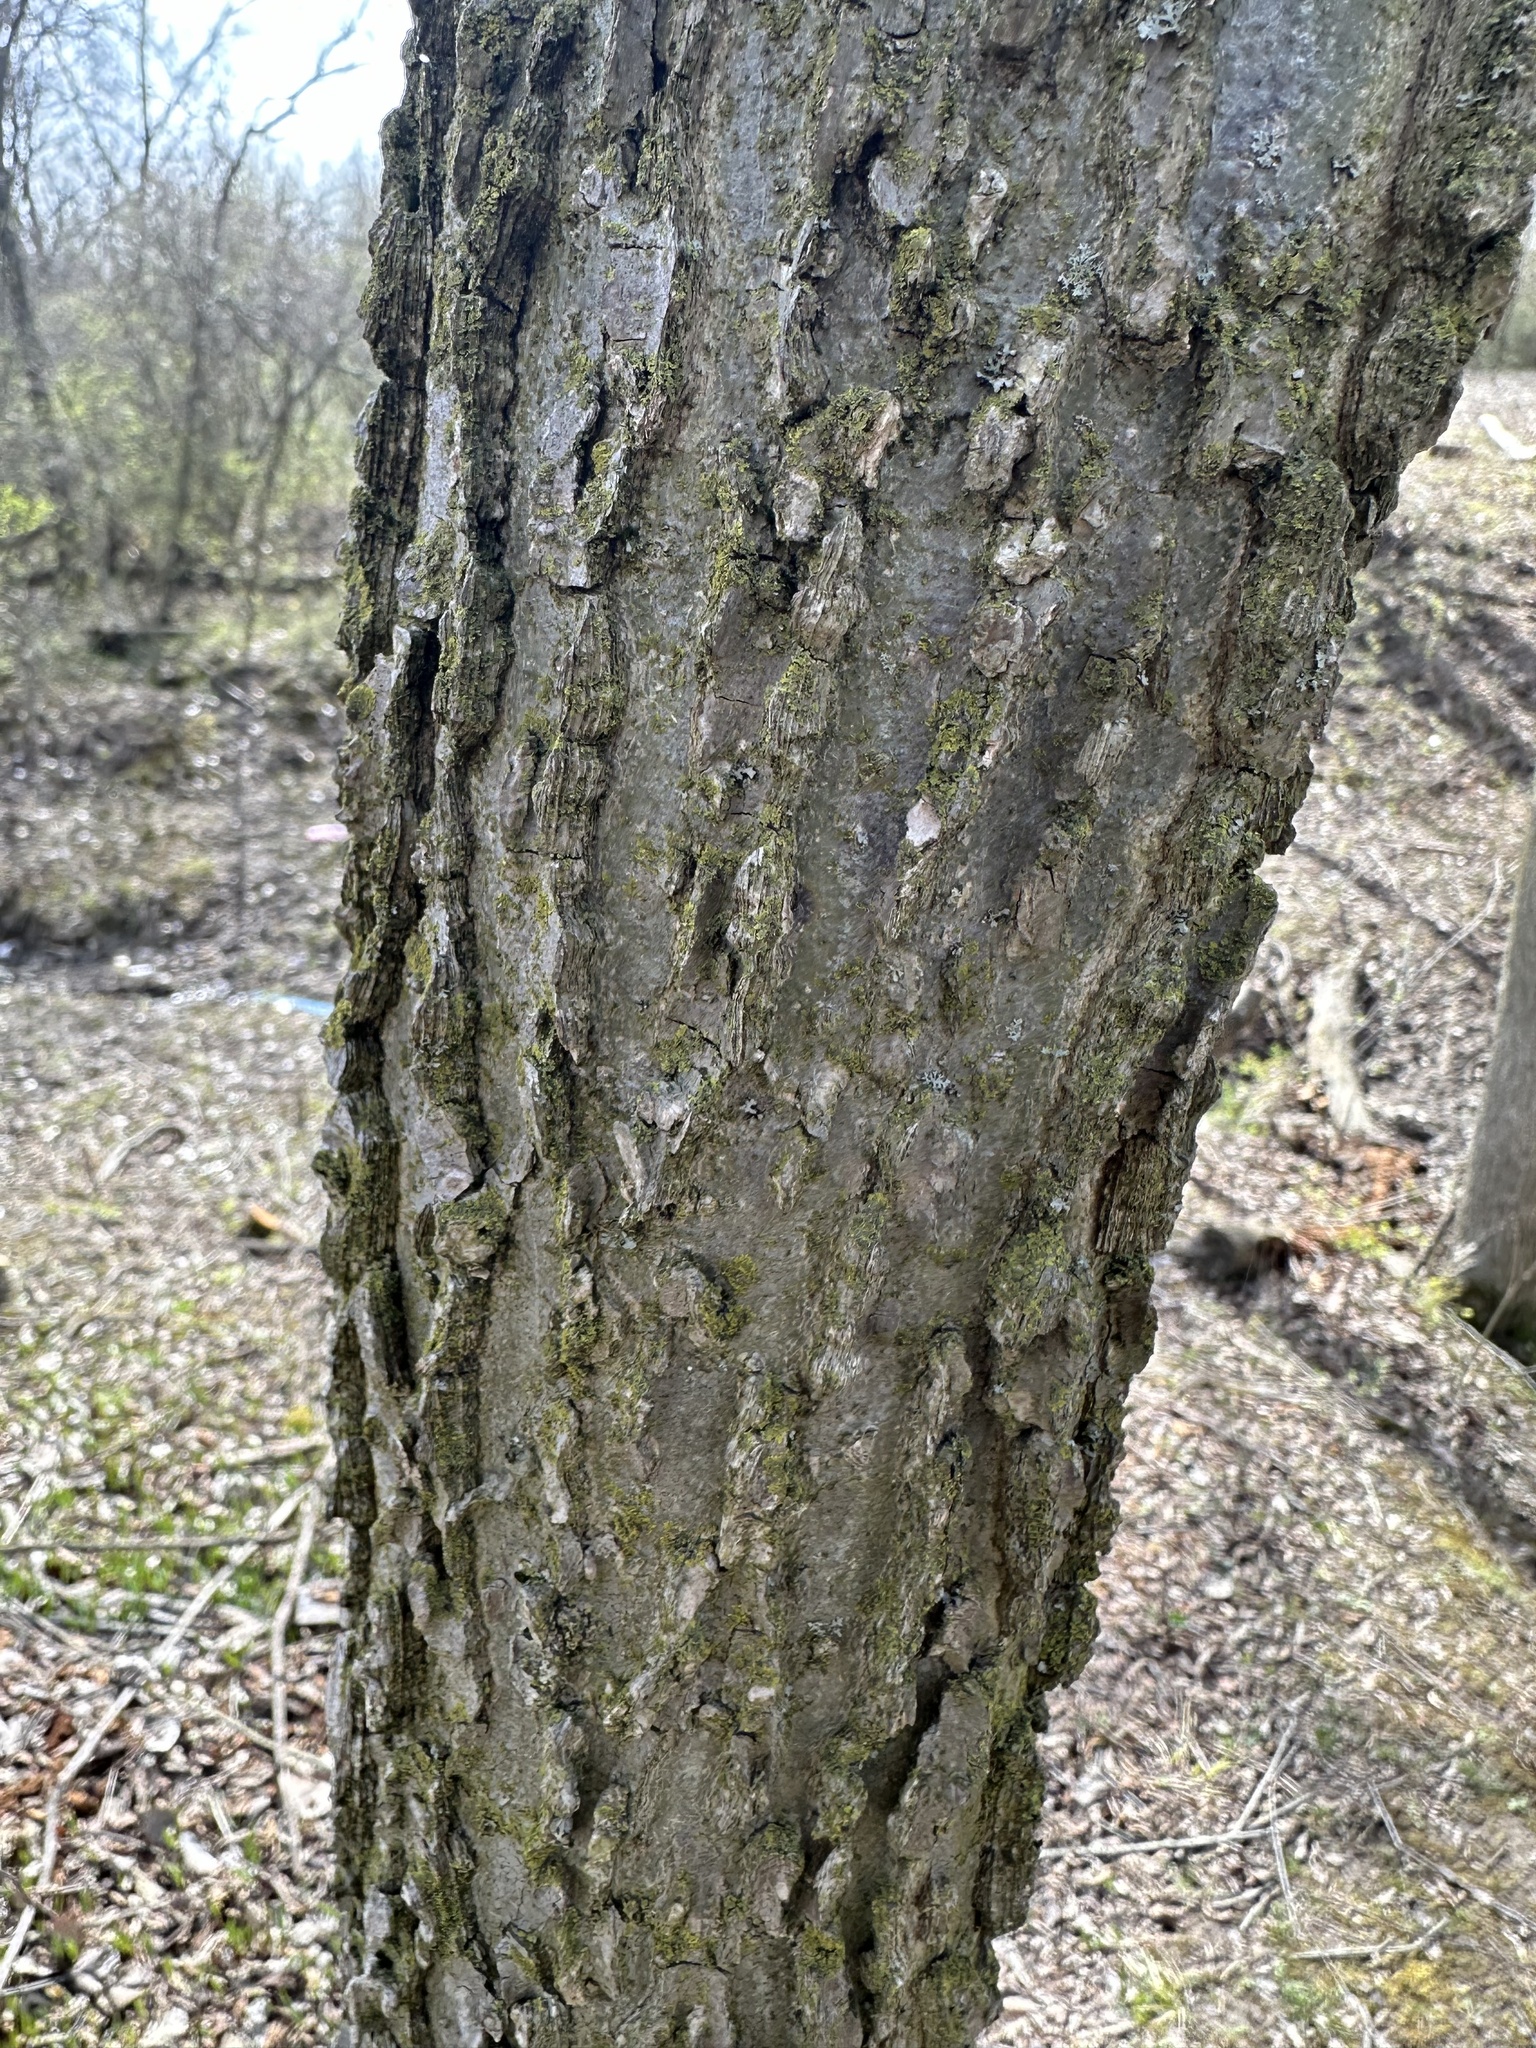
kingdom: Plantae
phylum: Tracheophyta
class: Magnoliopsida
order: Rosales
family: Cannabaceae
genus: Celtis
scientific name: Celtis occidentalis
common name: Common hackberry
